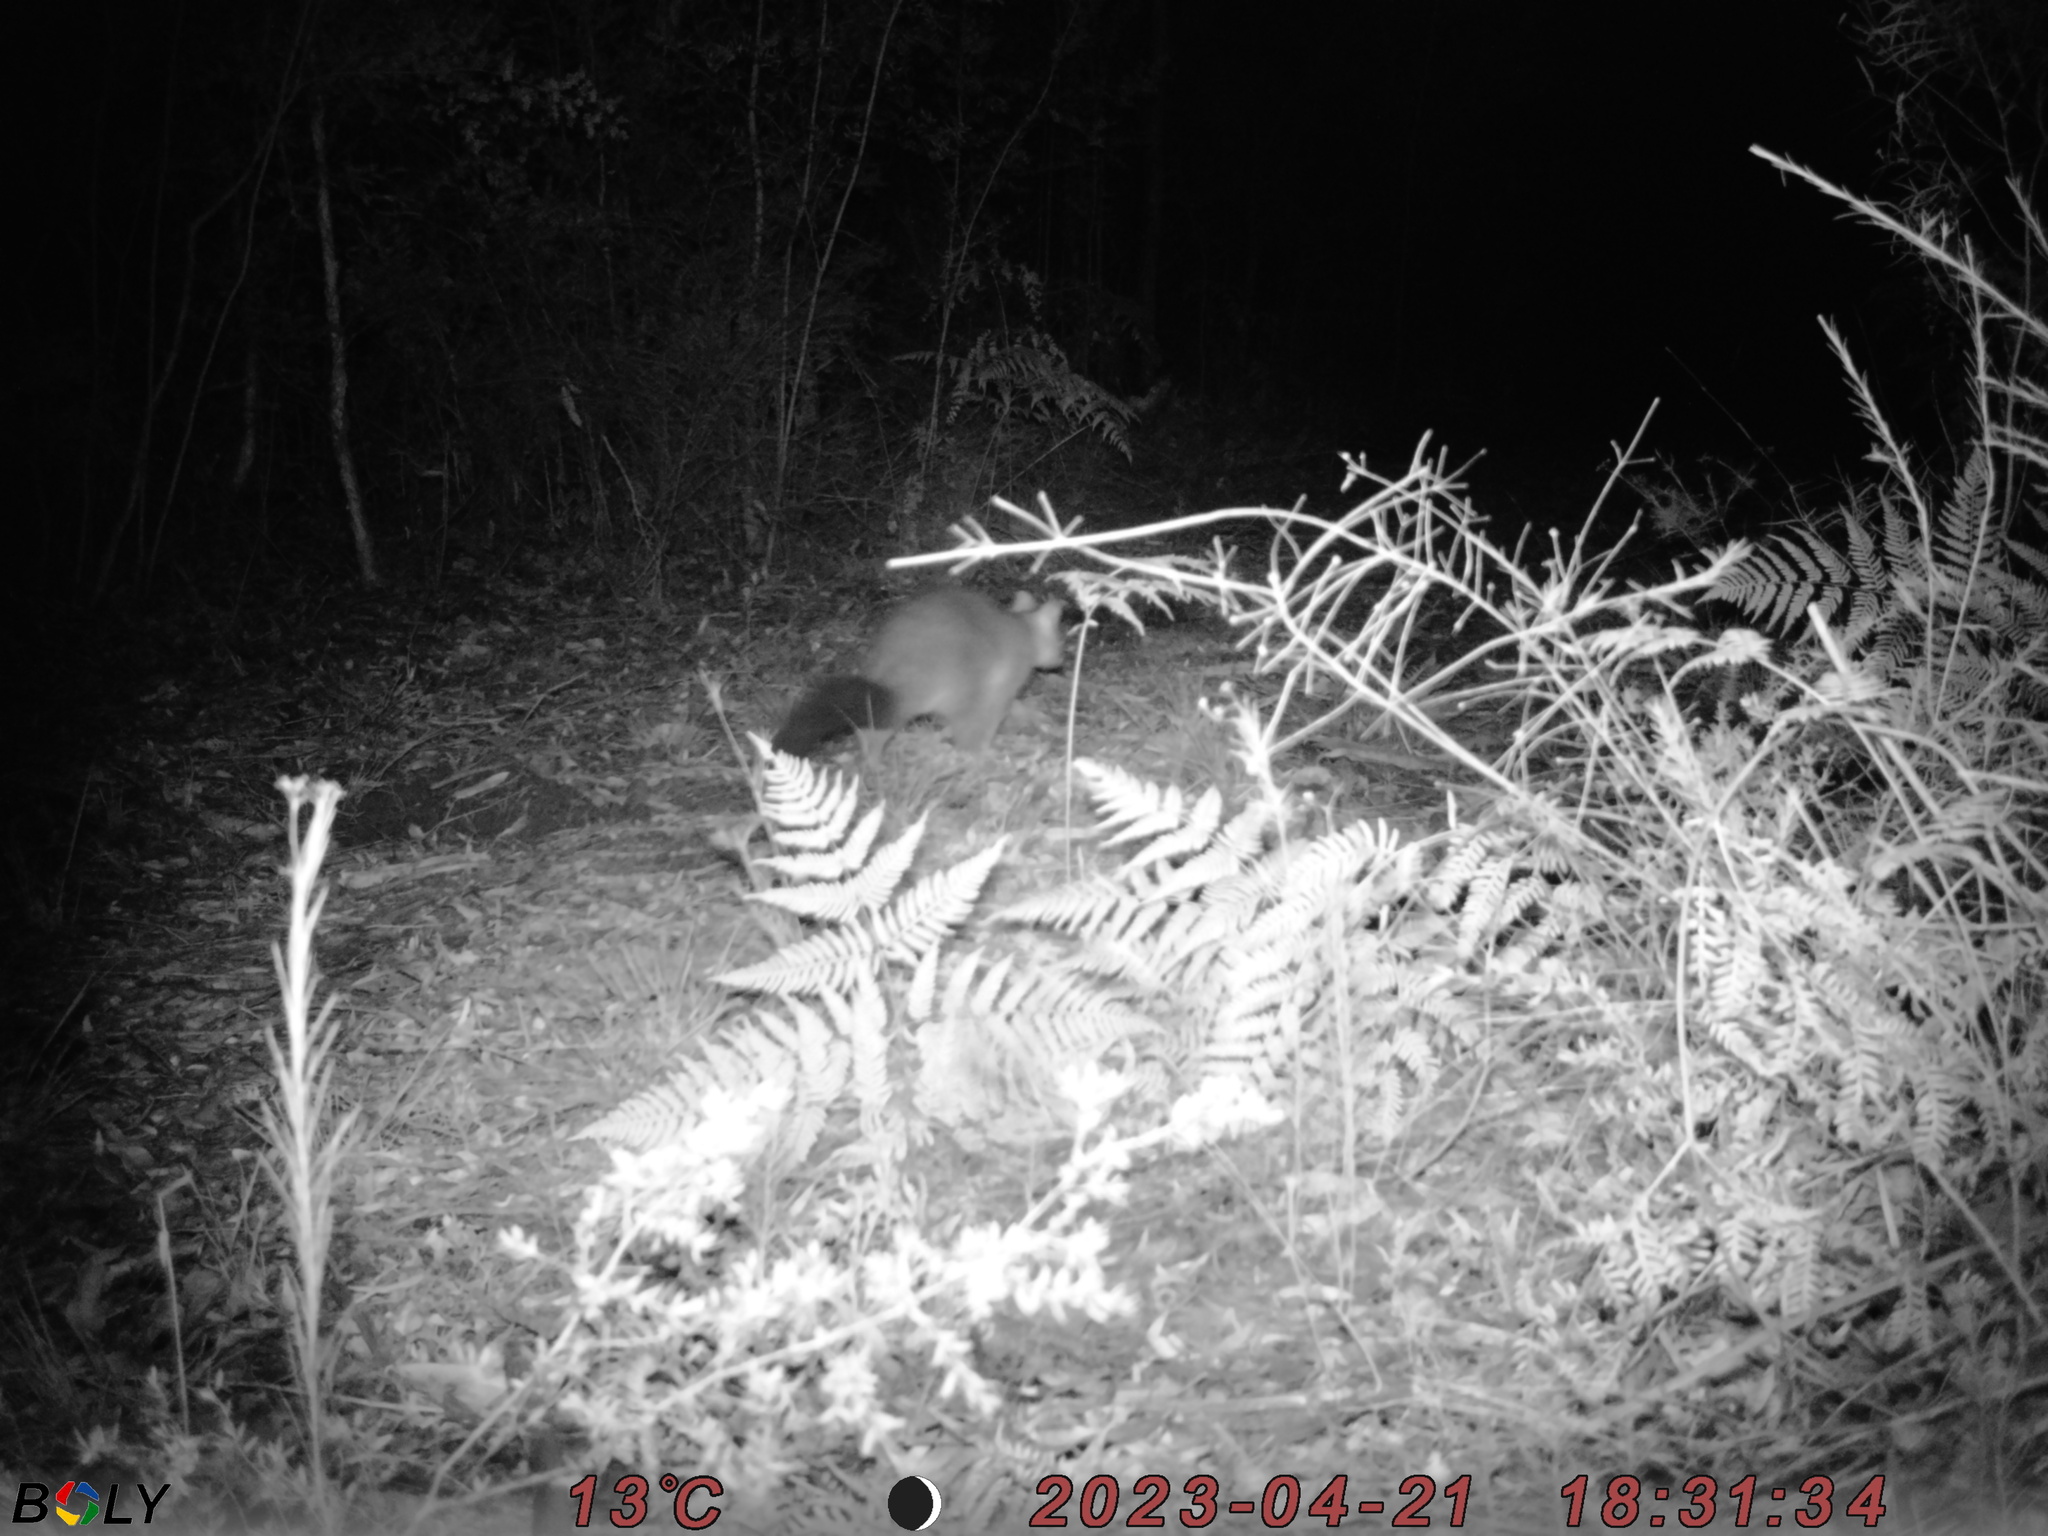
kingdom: Animalia
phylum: Chordata
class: Mammalia
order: Diprotodontia
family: Phalangeridae
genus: Trichosurus
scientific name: Trichosurus vulpecula
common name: Common brushtail
